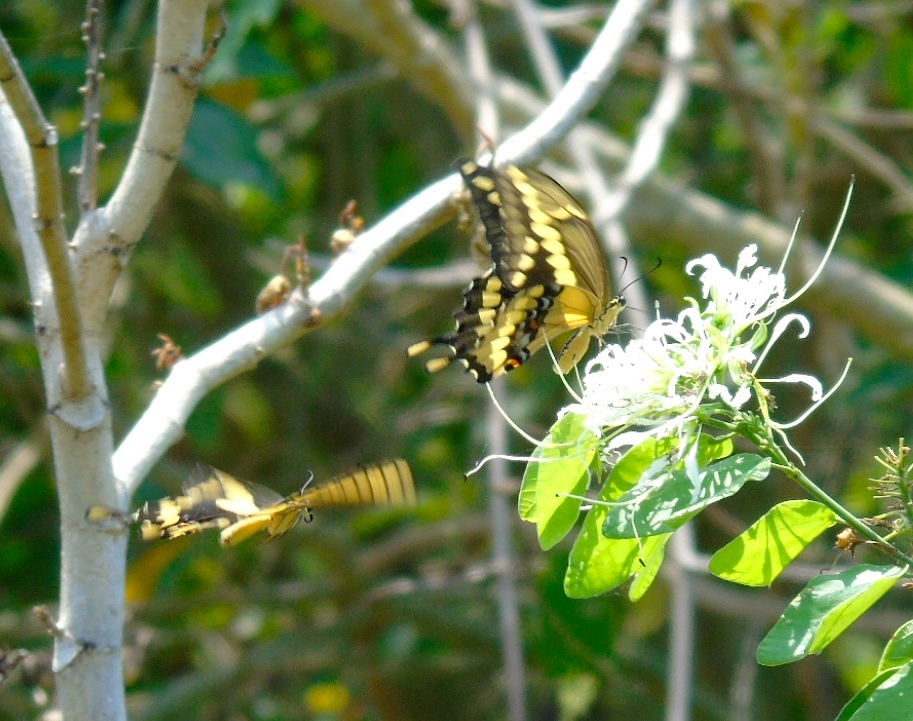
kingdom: Animalia
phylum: Arthropoda
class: Insecta
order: Lepidoptera
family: Papilionidae
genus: Papilio
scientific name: Papilio rumiko
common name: Western giant swallowtail
